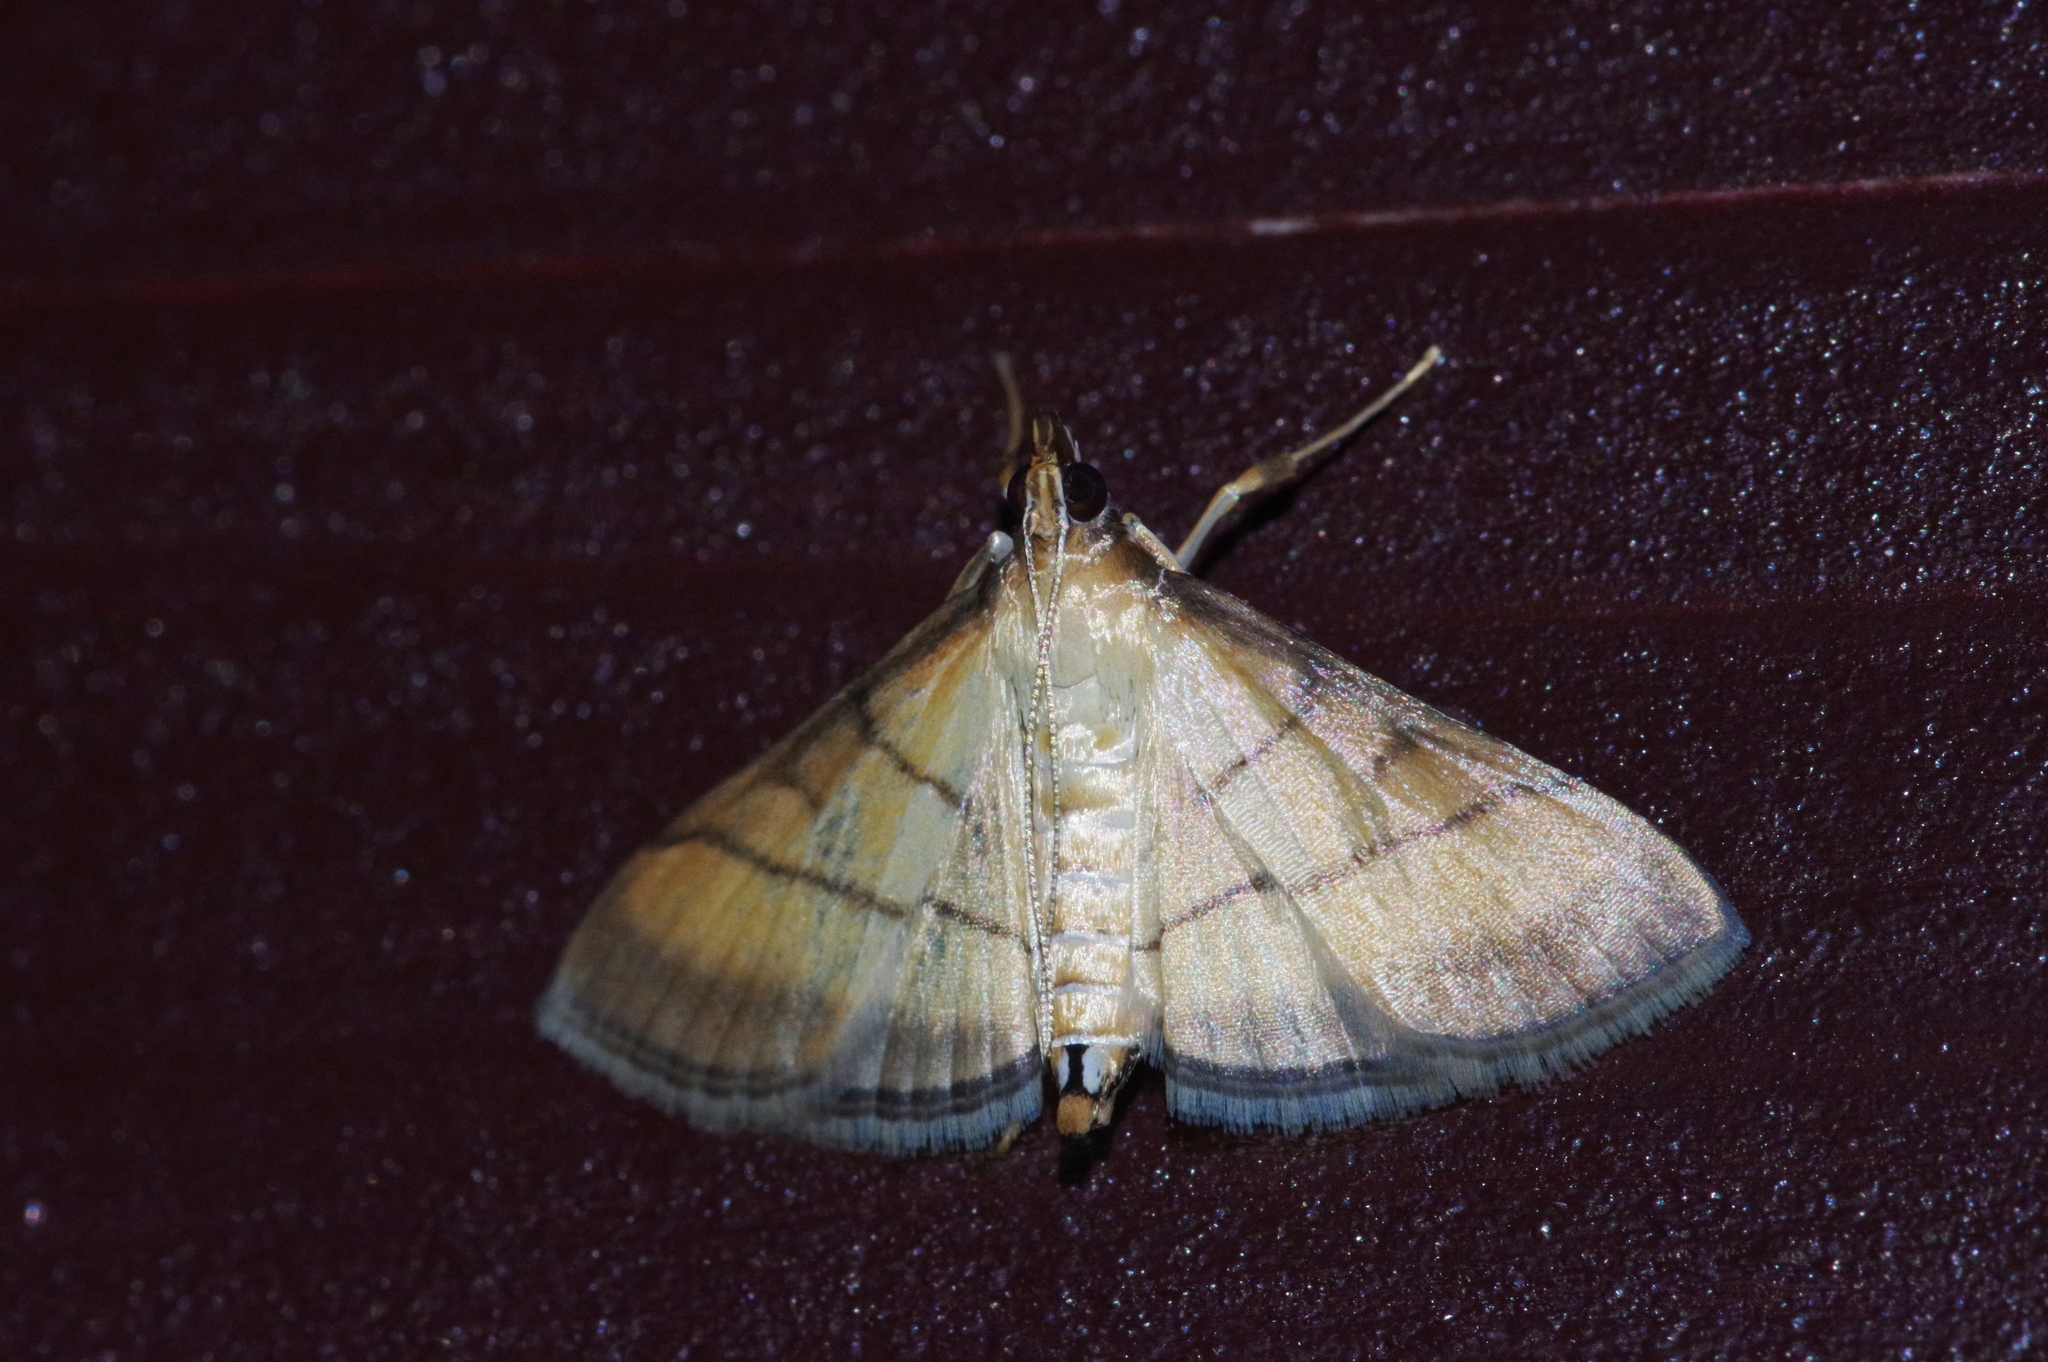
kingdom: Animalia
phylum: Arthropoda
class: Insecta
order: Lepidoptera
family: Crambidae
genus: Cnaphalocrocis
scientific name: Cnaphalocrocis medinalis
